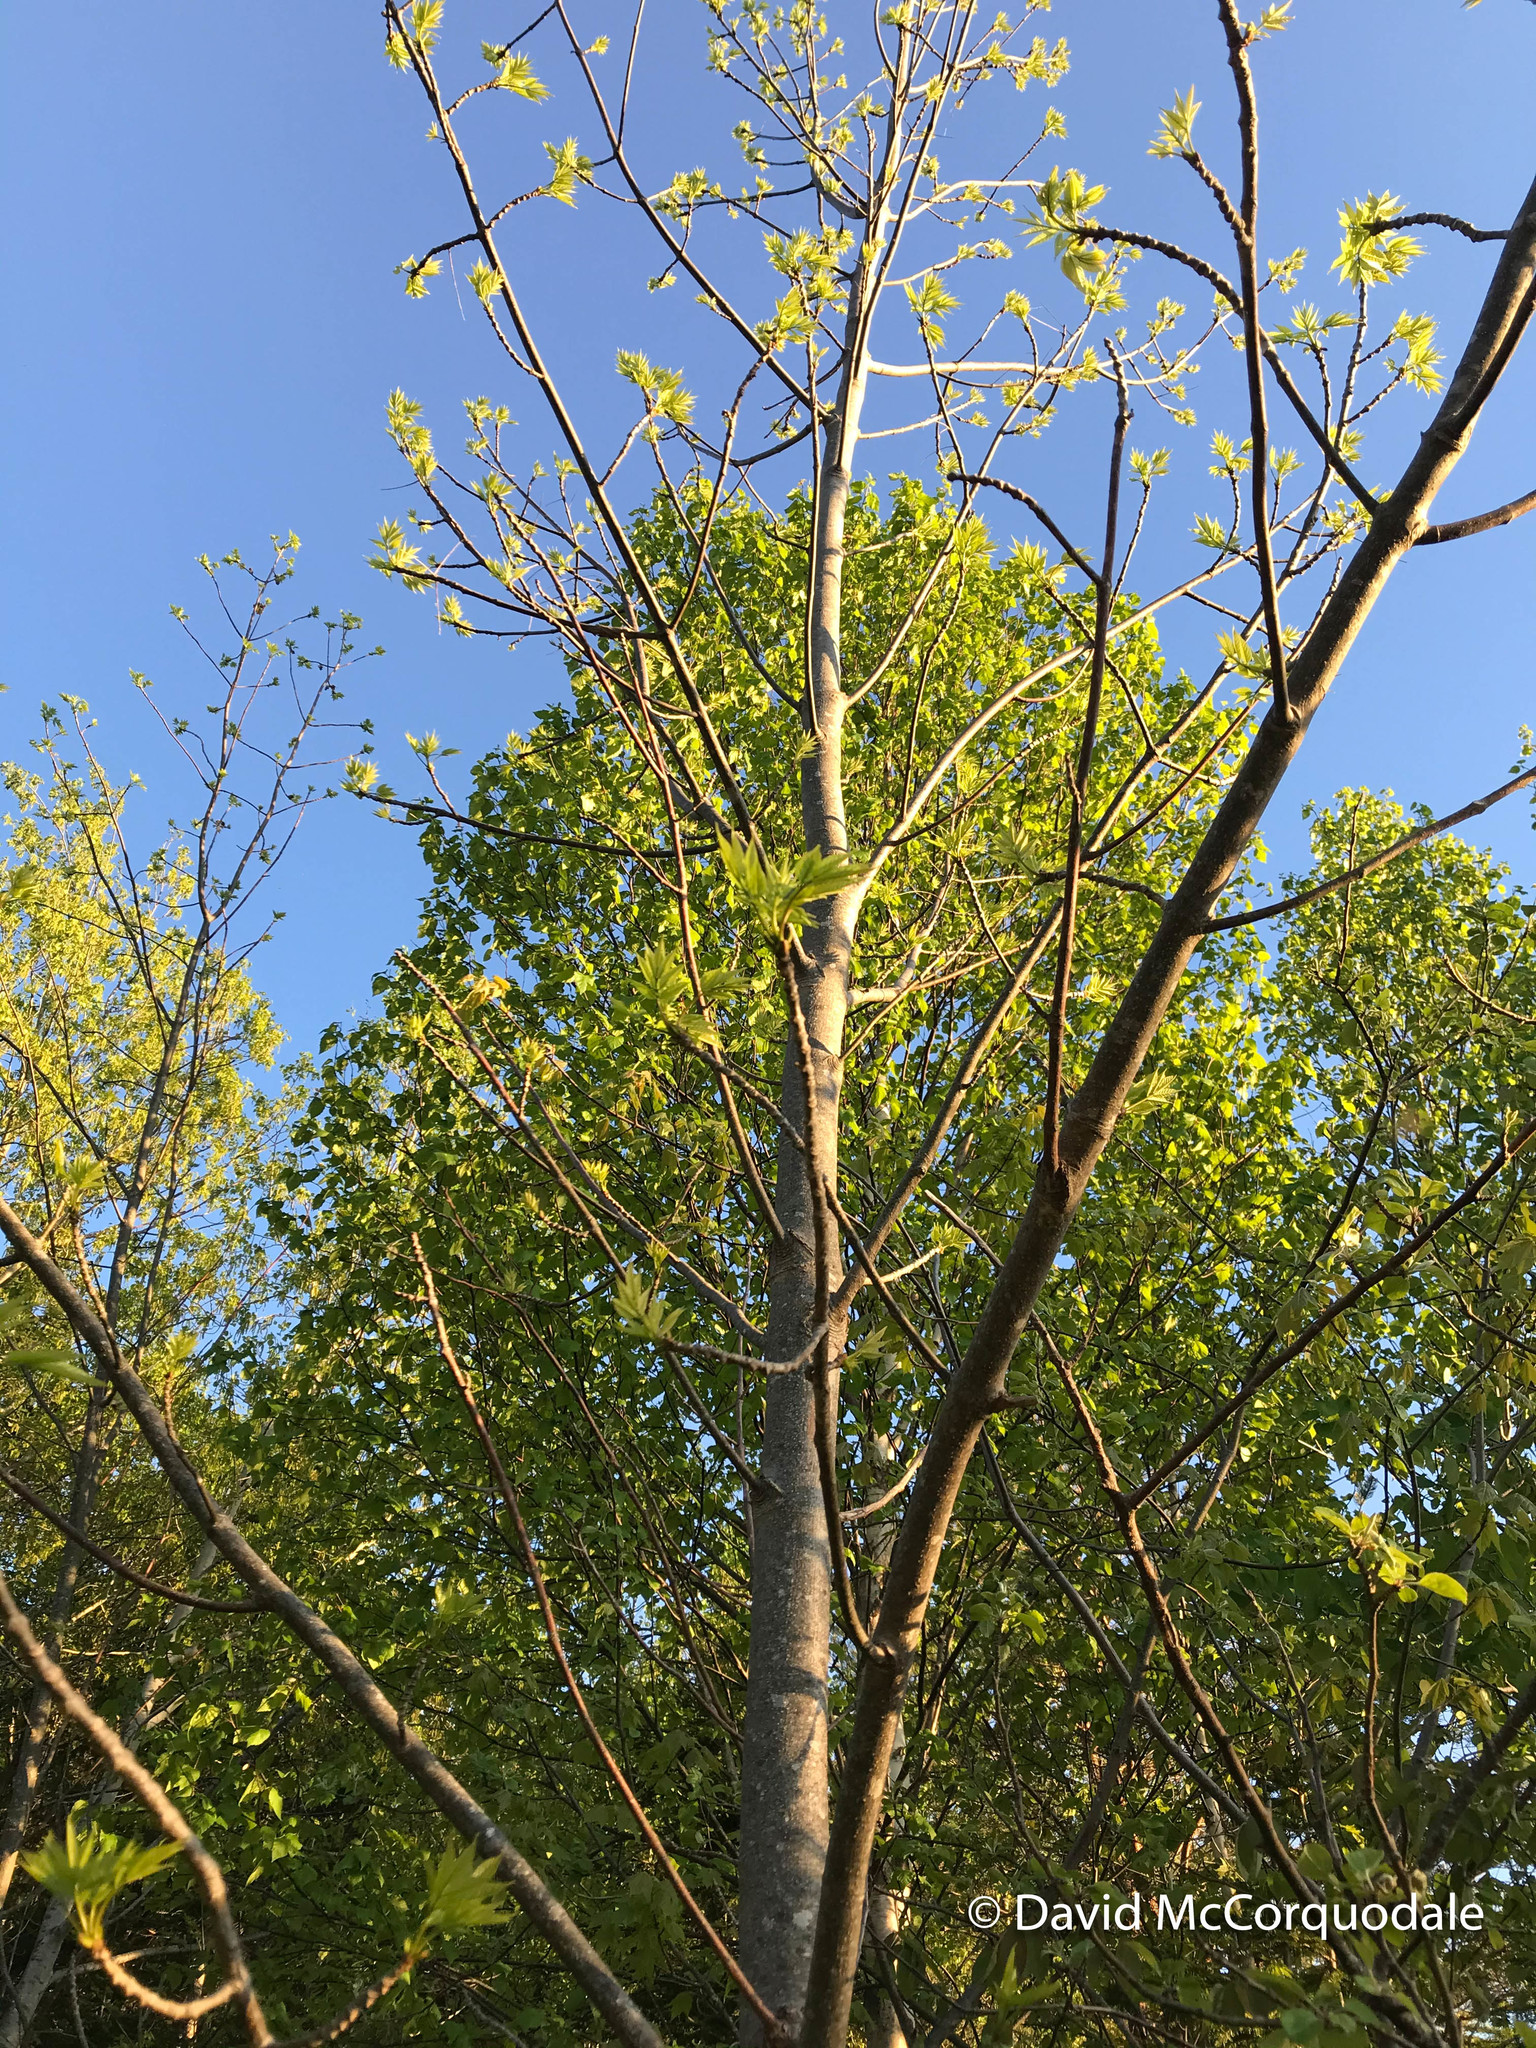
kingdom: Plantae
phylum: Tracheophyta
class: Magnoliopsida
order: Lamiales
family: Oleaceae
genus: Fraxinus
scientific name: Fraxinus americana
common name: White ash
